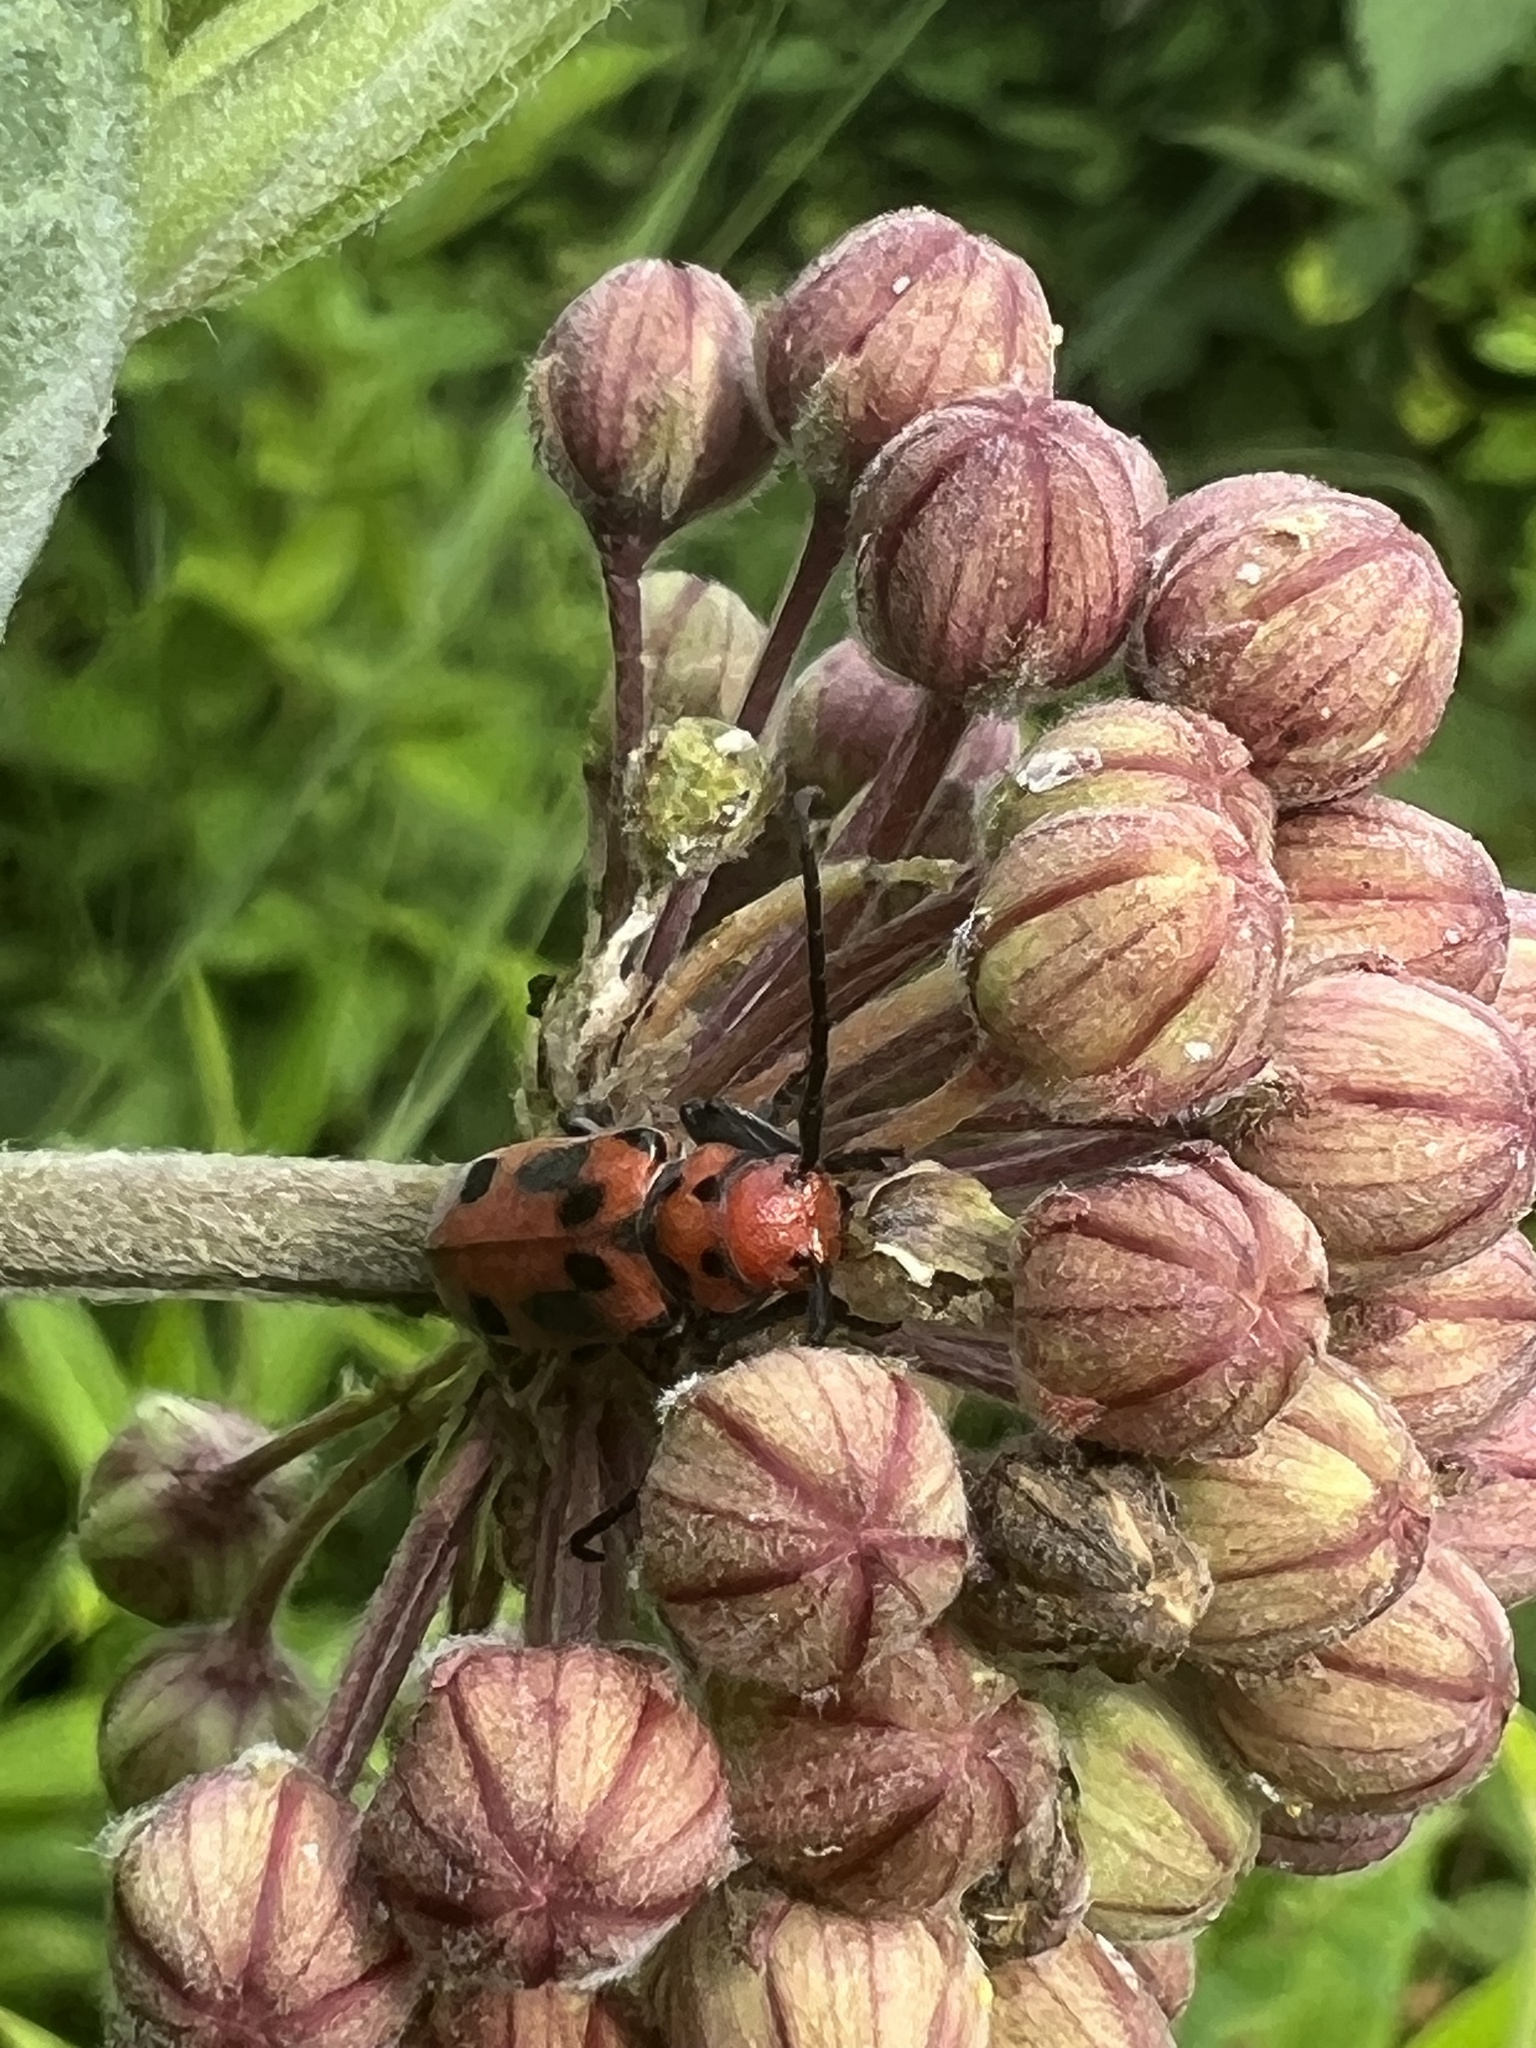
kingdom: Animalia
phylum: Arthropoda
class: Insecta
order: Coleoptera
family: Cerambycidae
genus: Tetraopes
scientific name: Tetraopes tetrophthalmus
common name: Red milkweed beetle
